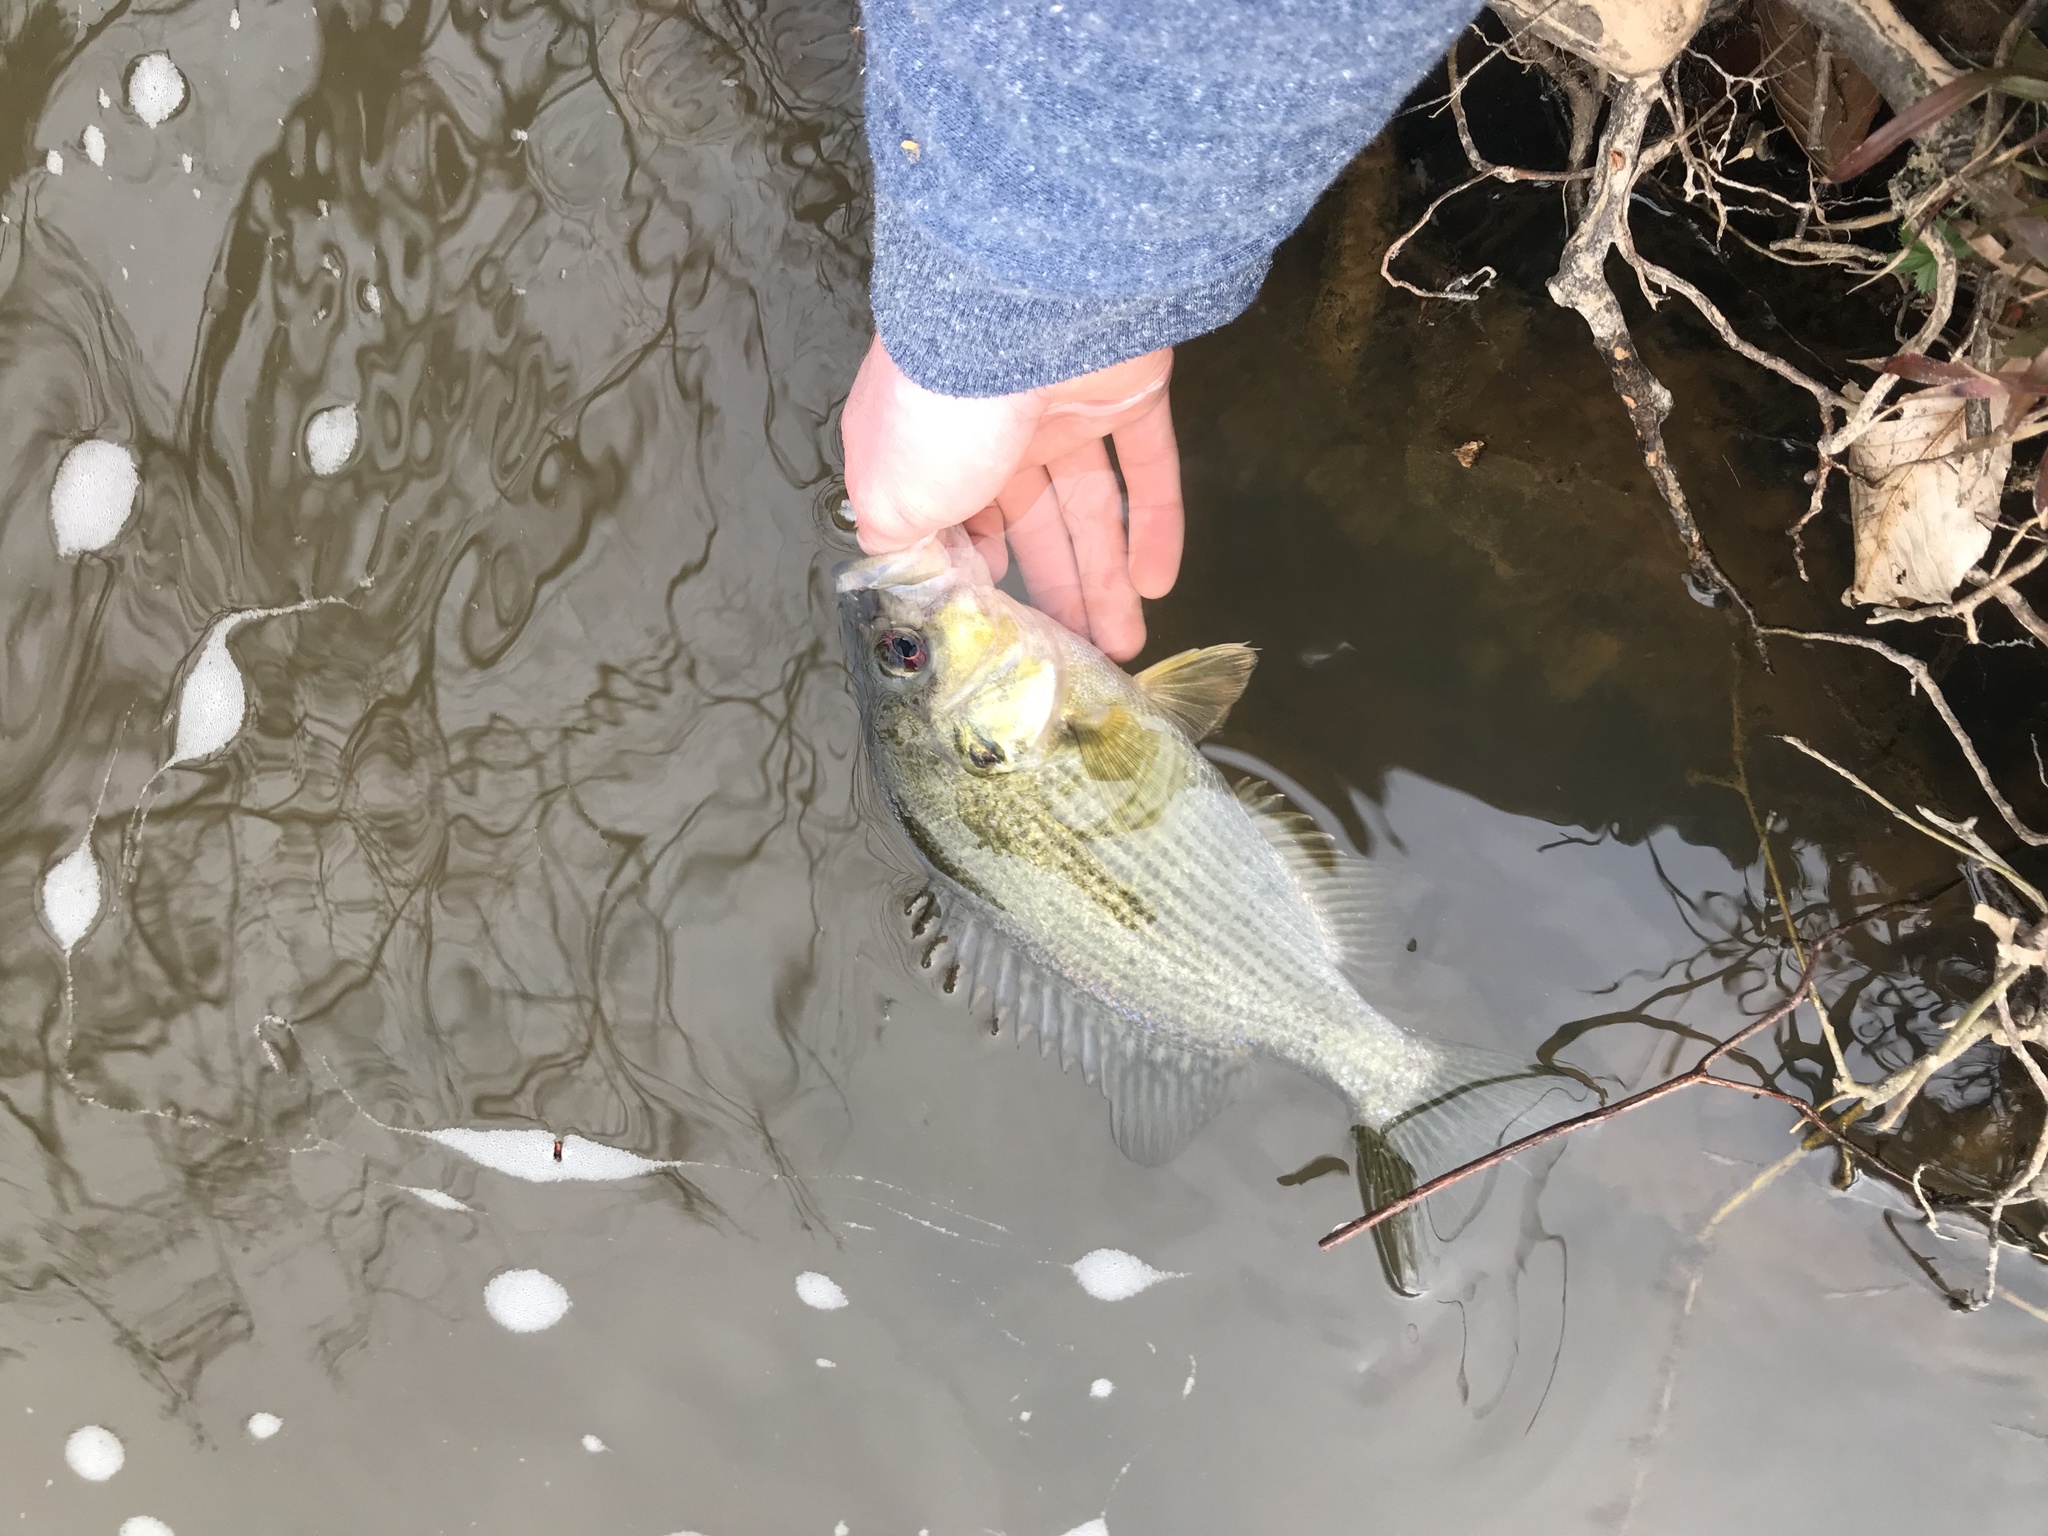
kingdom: Animalia
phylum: Chordata
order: Perciformes
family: Centrarchidae
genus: Ambloplites
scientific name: Ambloplites cavifrons
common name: Roanoke bass
